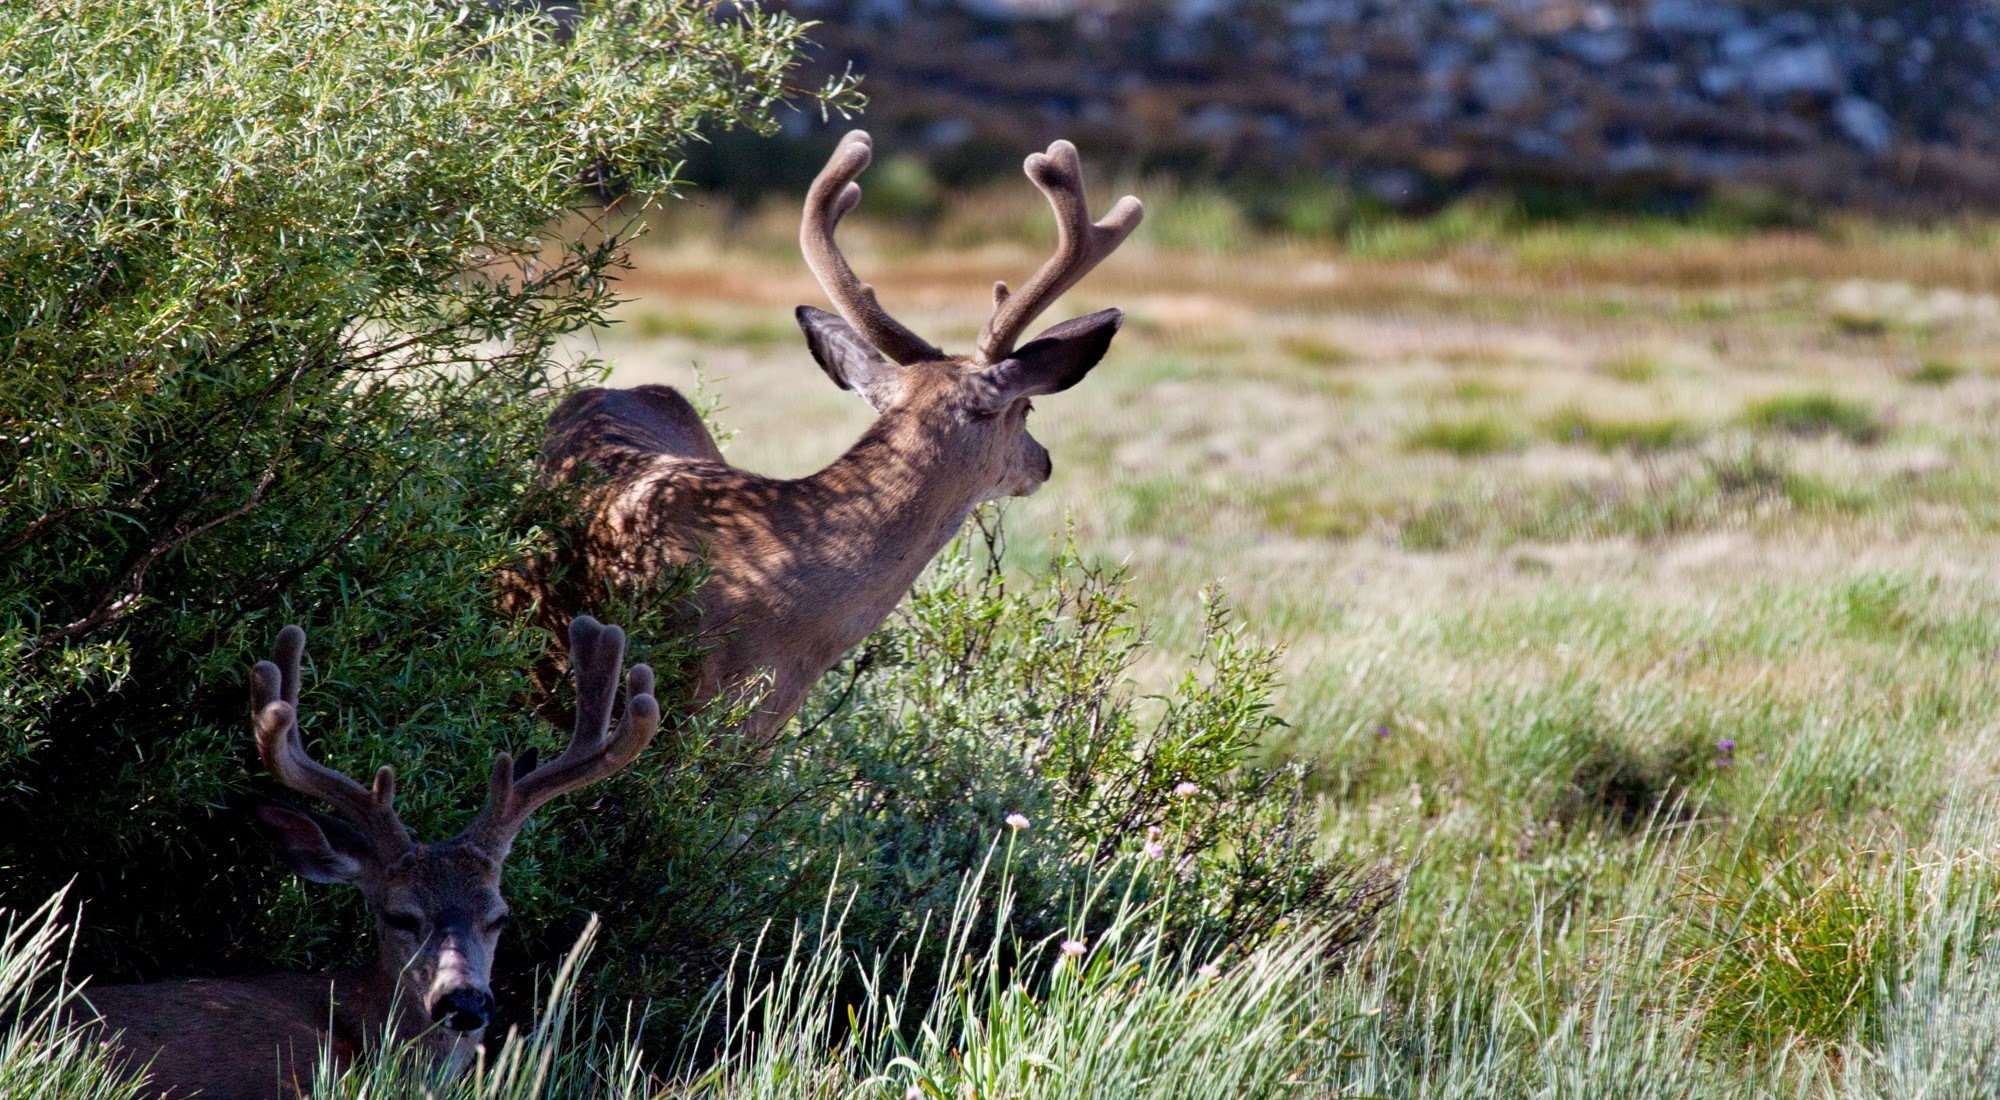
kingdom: Animalia
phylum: Chordata
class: Mammalia
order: Artiodactyla
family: Cervidae
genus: Odocoileus
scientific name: Odocoileus hemionus
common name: Mule deer
